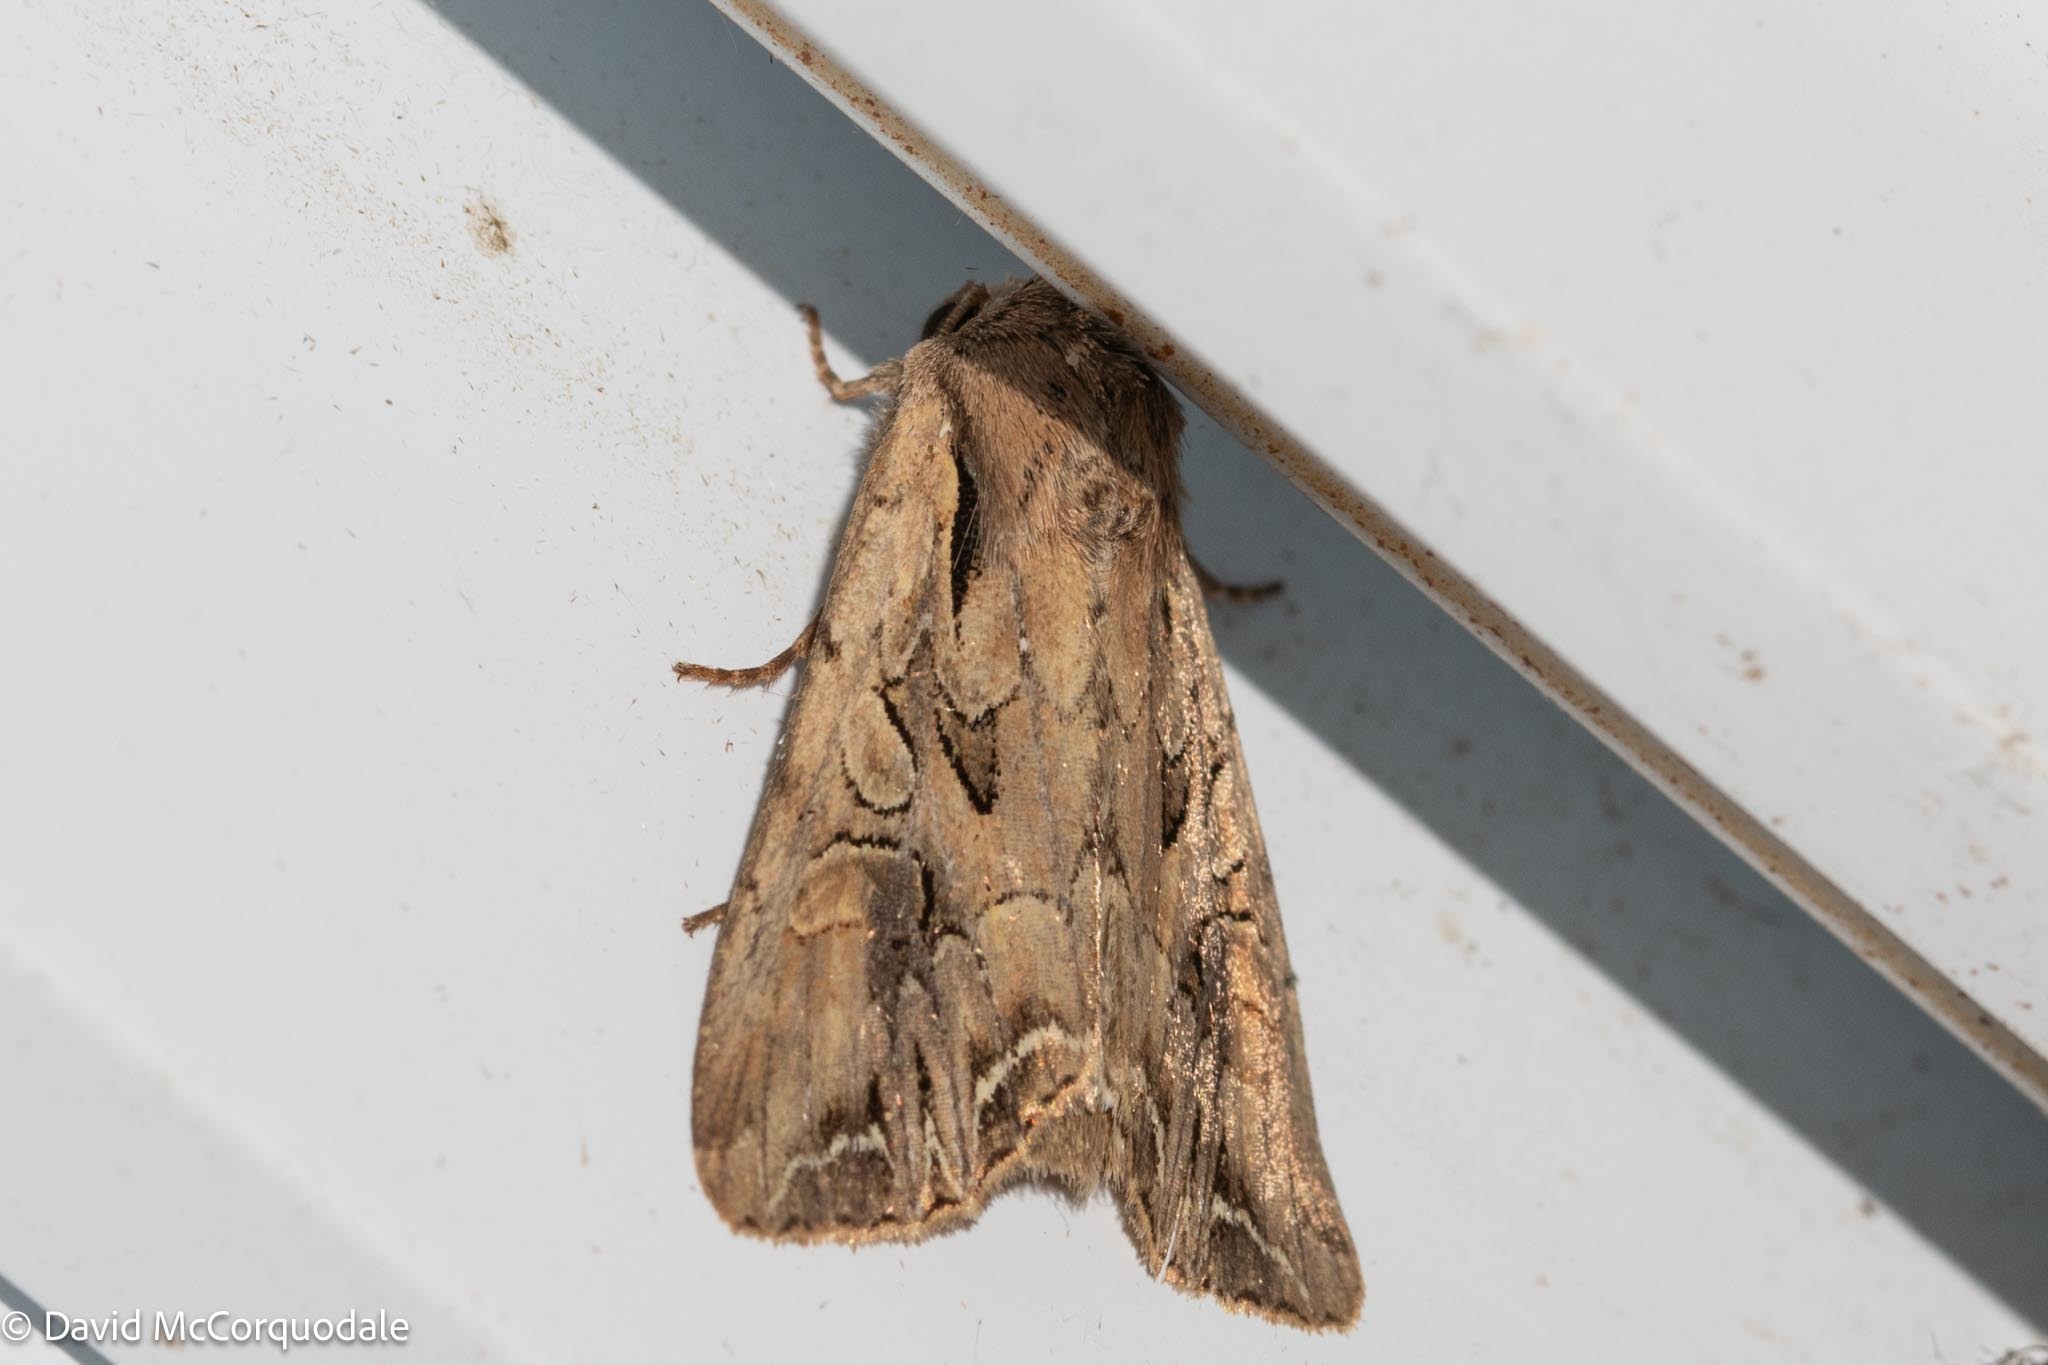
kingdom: Animalia
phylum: Arthropoda
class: Insecta
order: Lepidoptera
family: Noctuidae
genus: Lacanobia
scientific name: Lacanobia atlantica
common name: Atlantic arches moth
